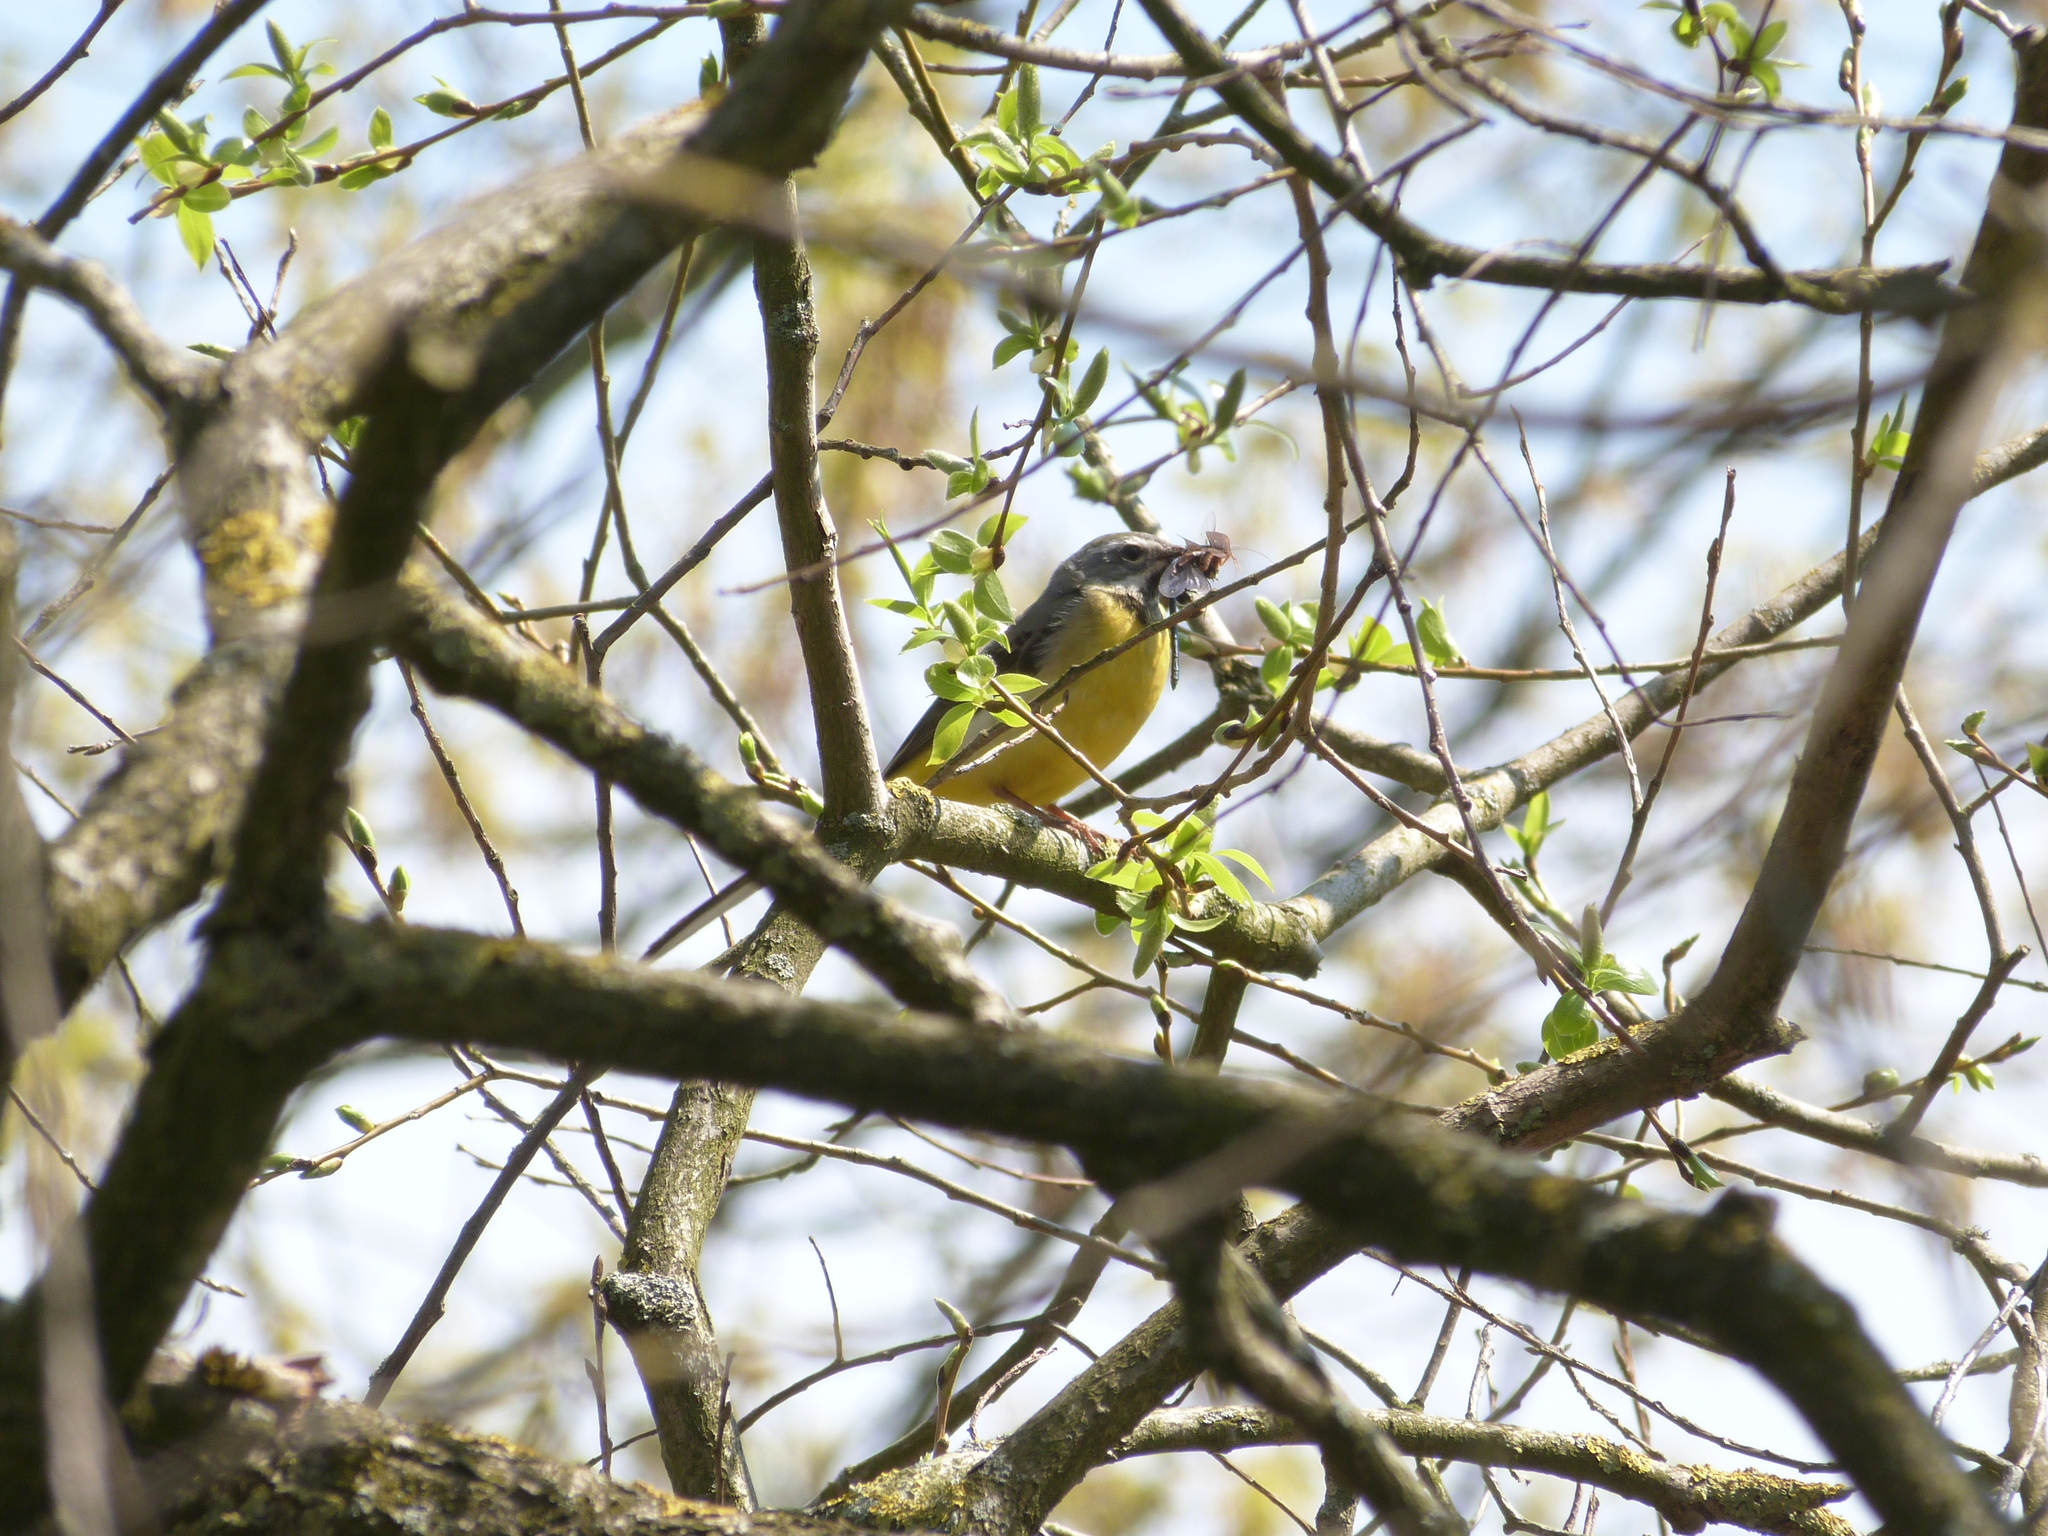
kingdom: Animalia
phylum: Chordata
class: Aves
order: Passeriformes
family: Motacillidae
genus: Motacilla
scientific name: Motacilla cinerea
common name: Grey wagtail
